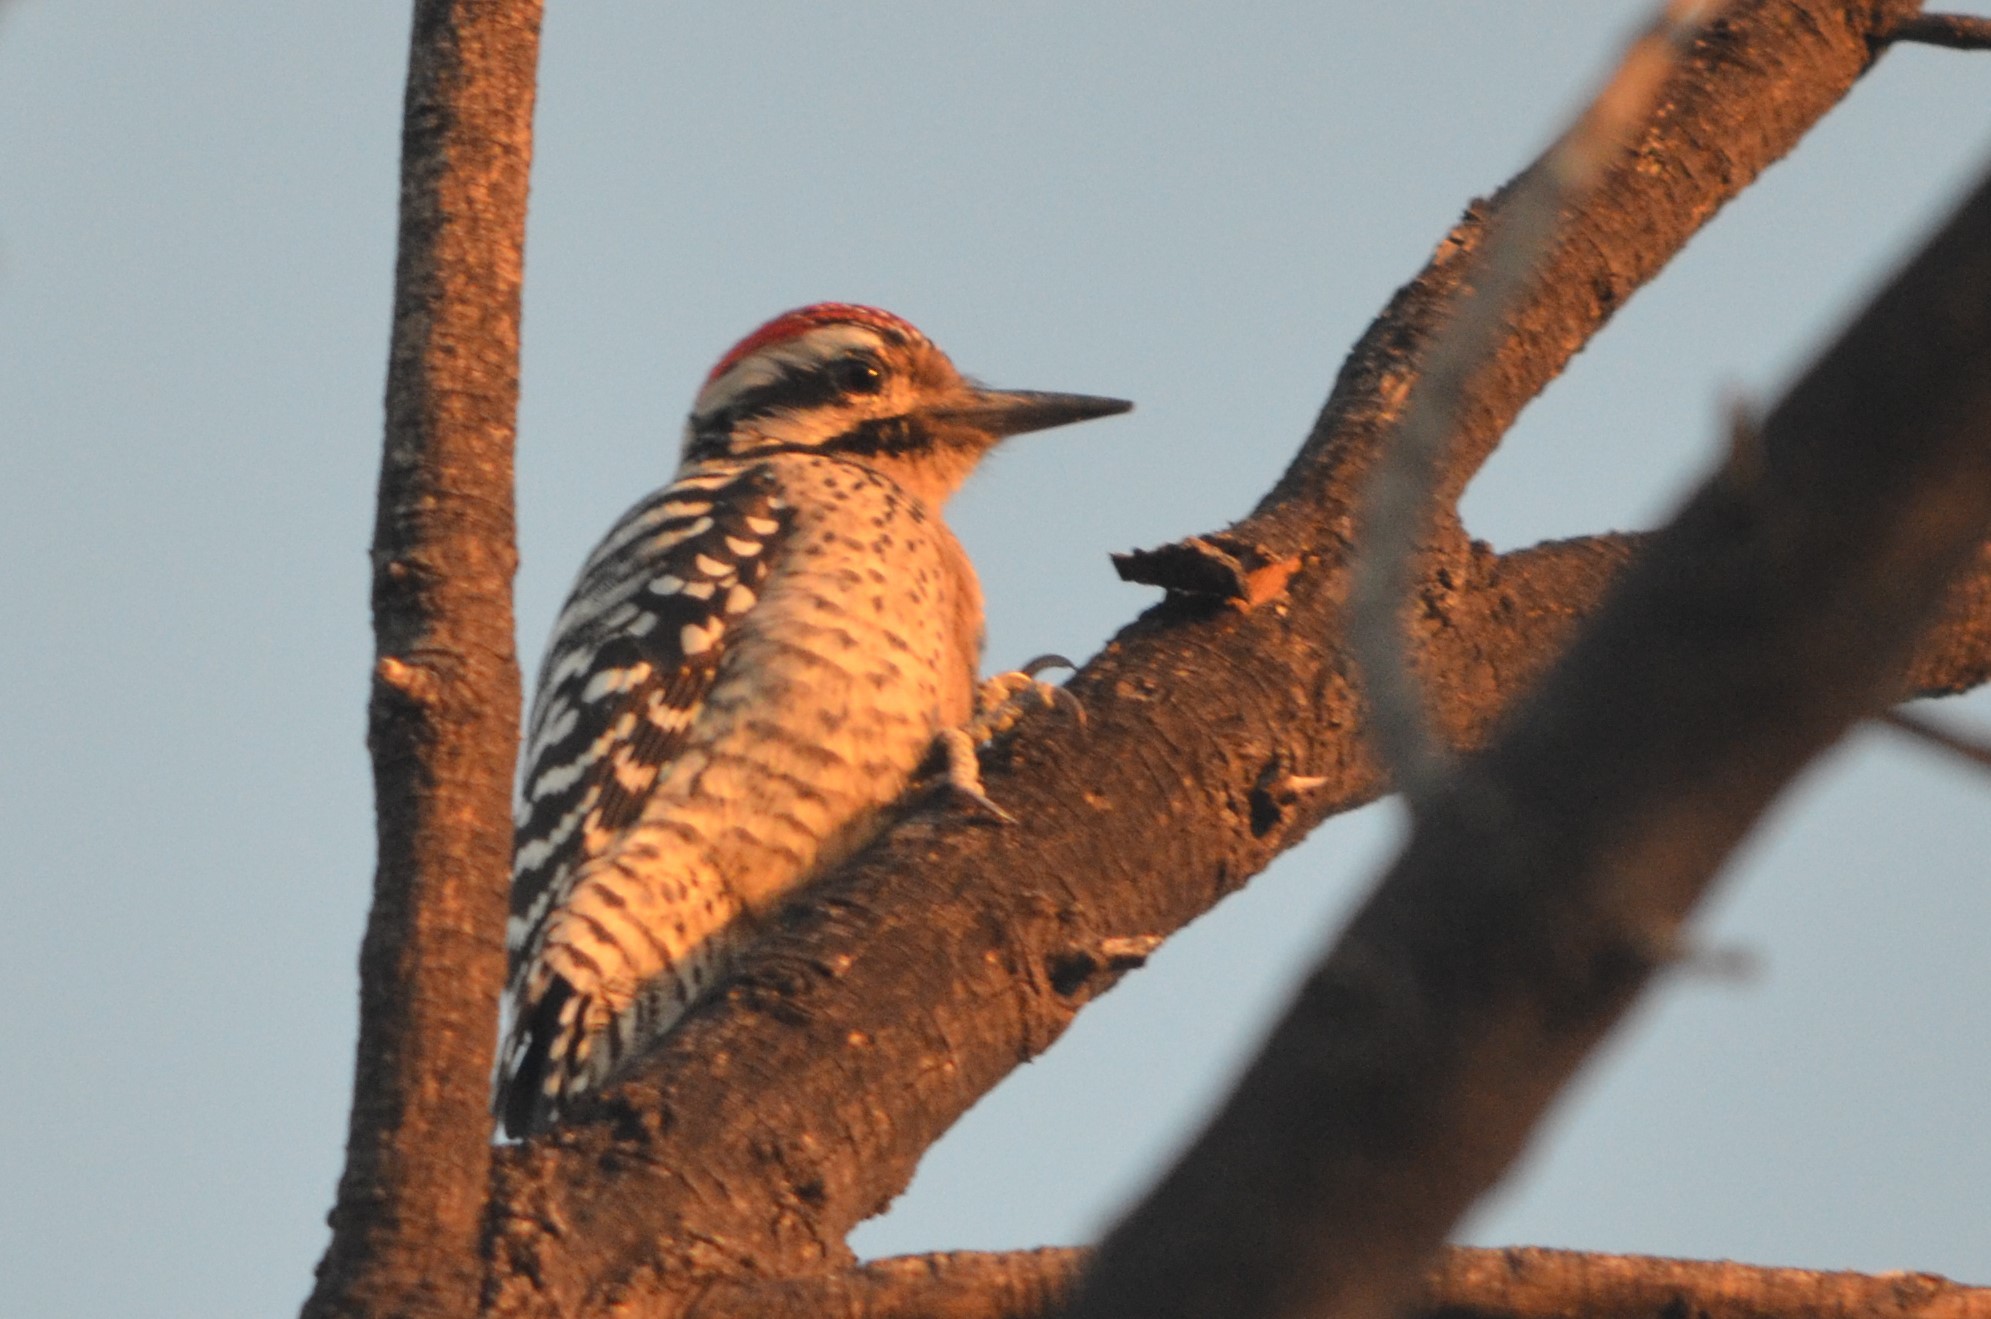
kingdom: Animalia
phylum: Chordata
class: Aves
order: Piciformes
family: Picidae
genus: Dryobates
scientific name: Dryobates scalaris
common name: Ladder-backed woodpecker
